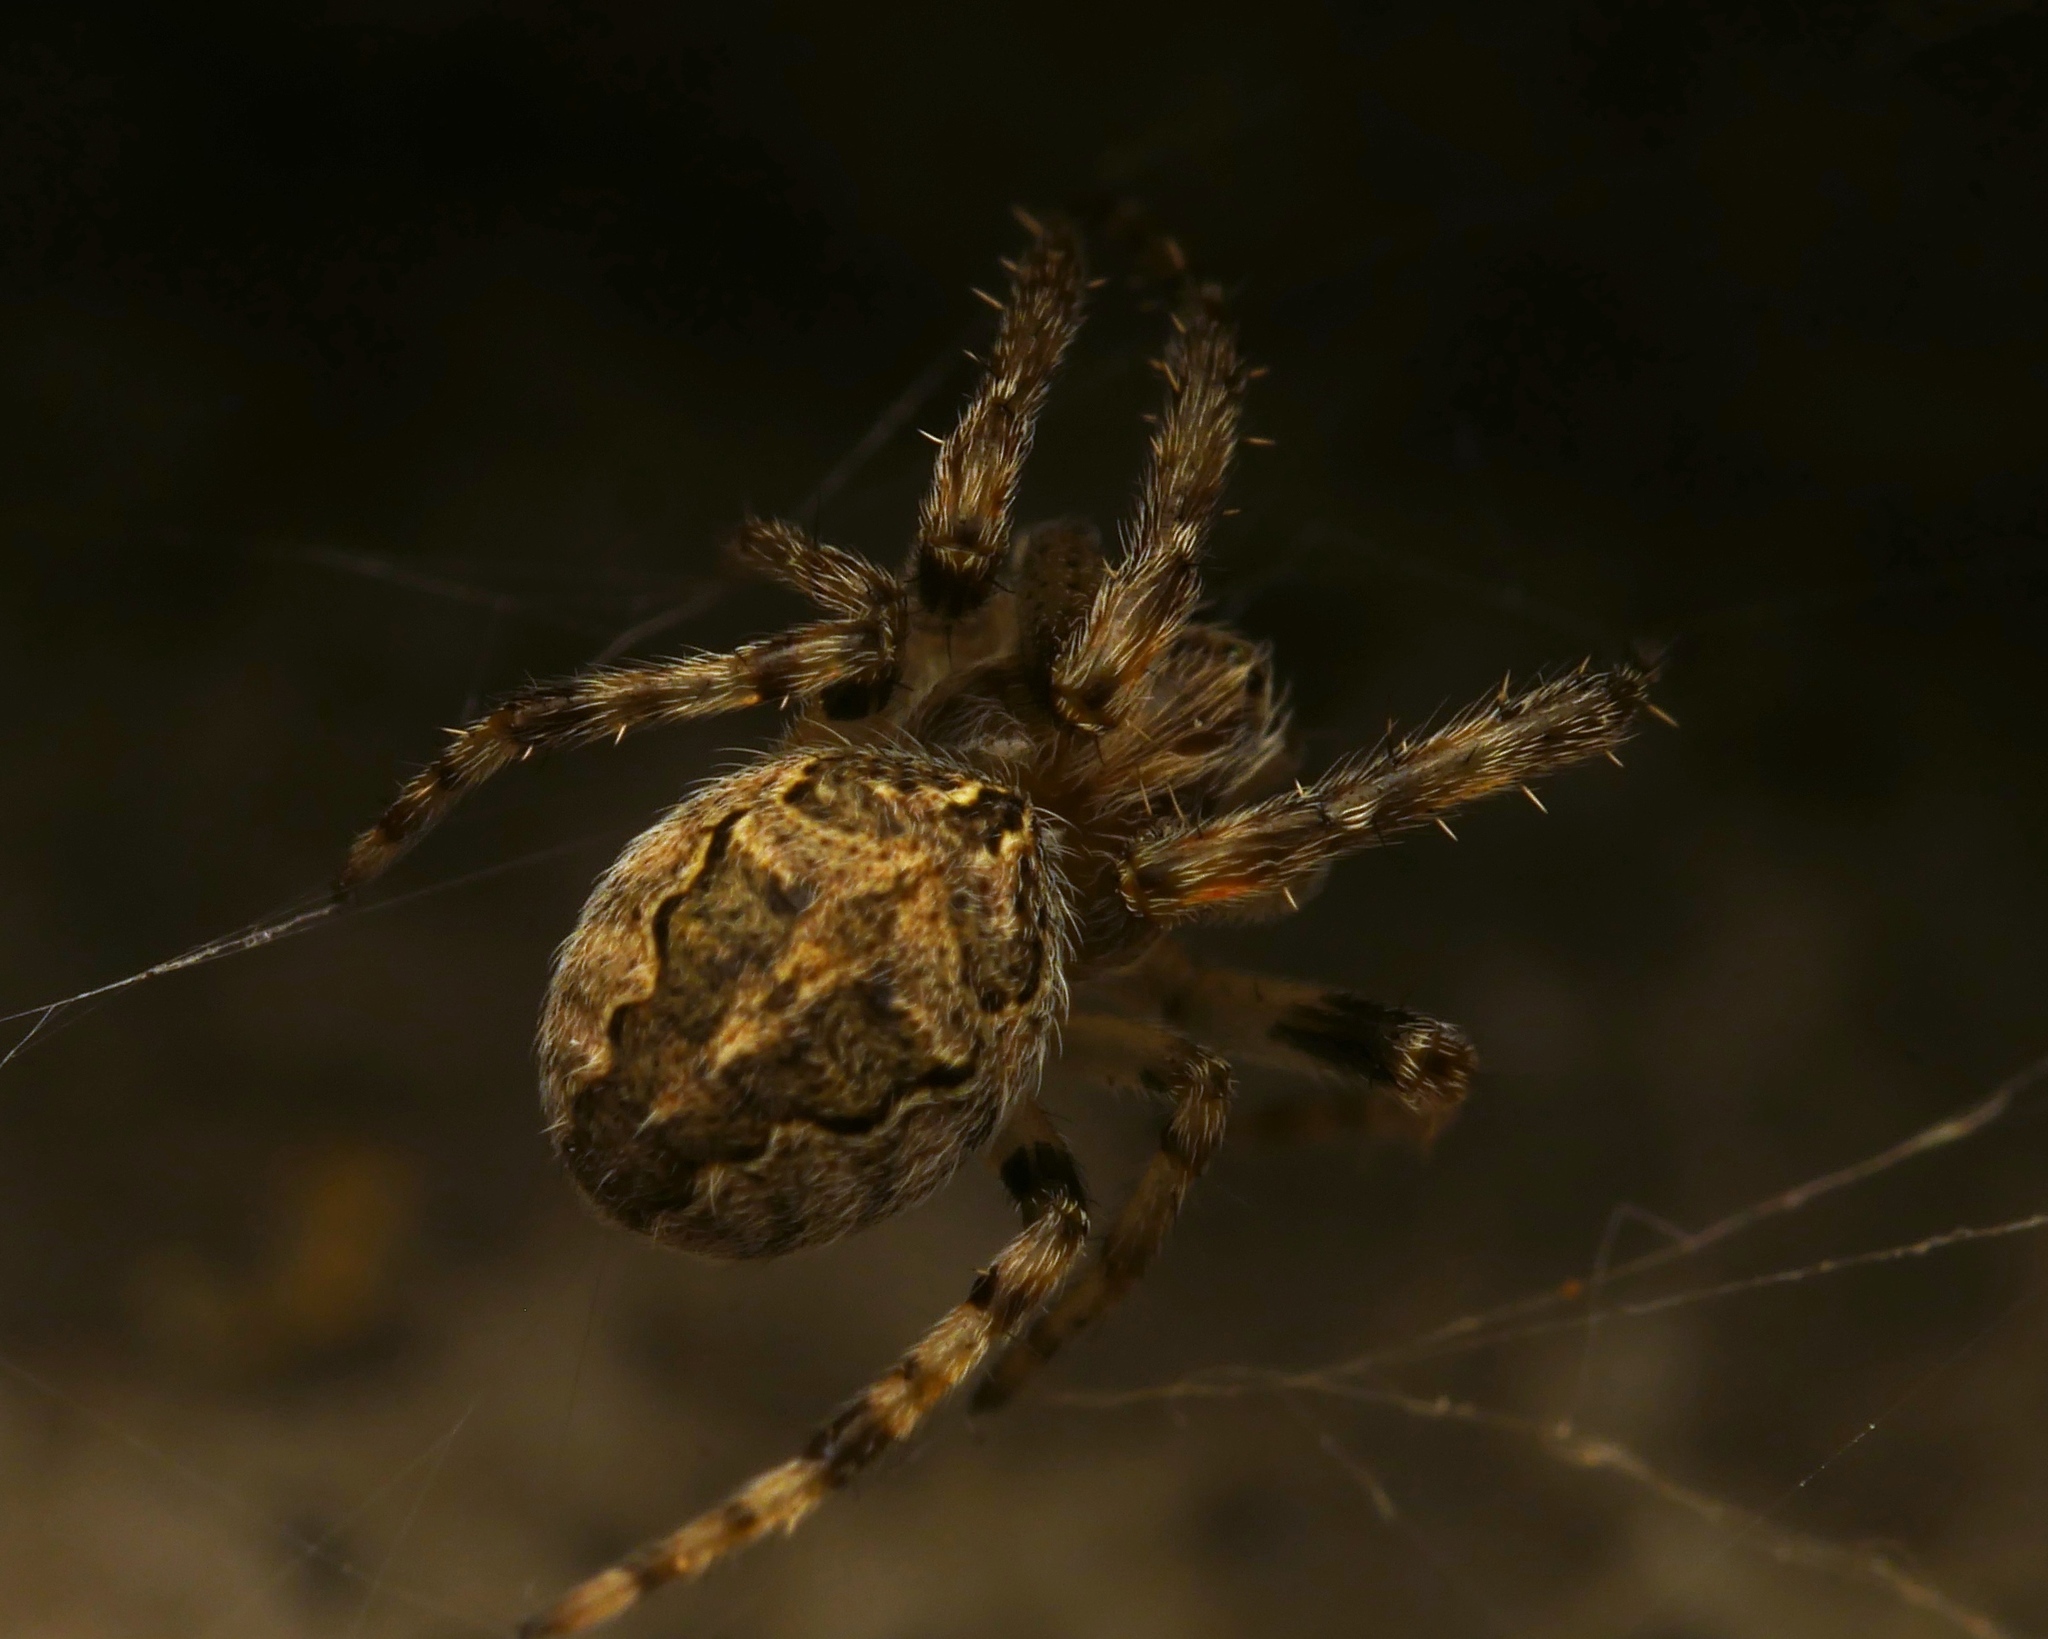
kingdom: Animalia
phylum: Arthropoda
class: Arachnida
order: Araneae
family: Araneidae
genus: Larinioides
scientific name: Larinioides sclopetarius
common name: Bridge orbweaver
